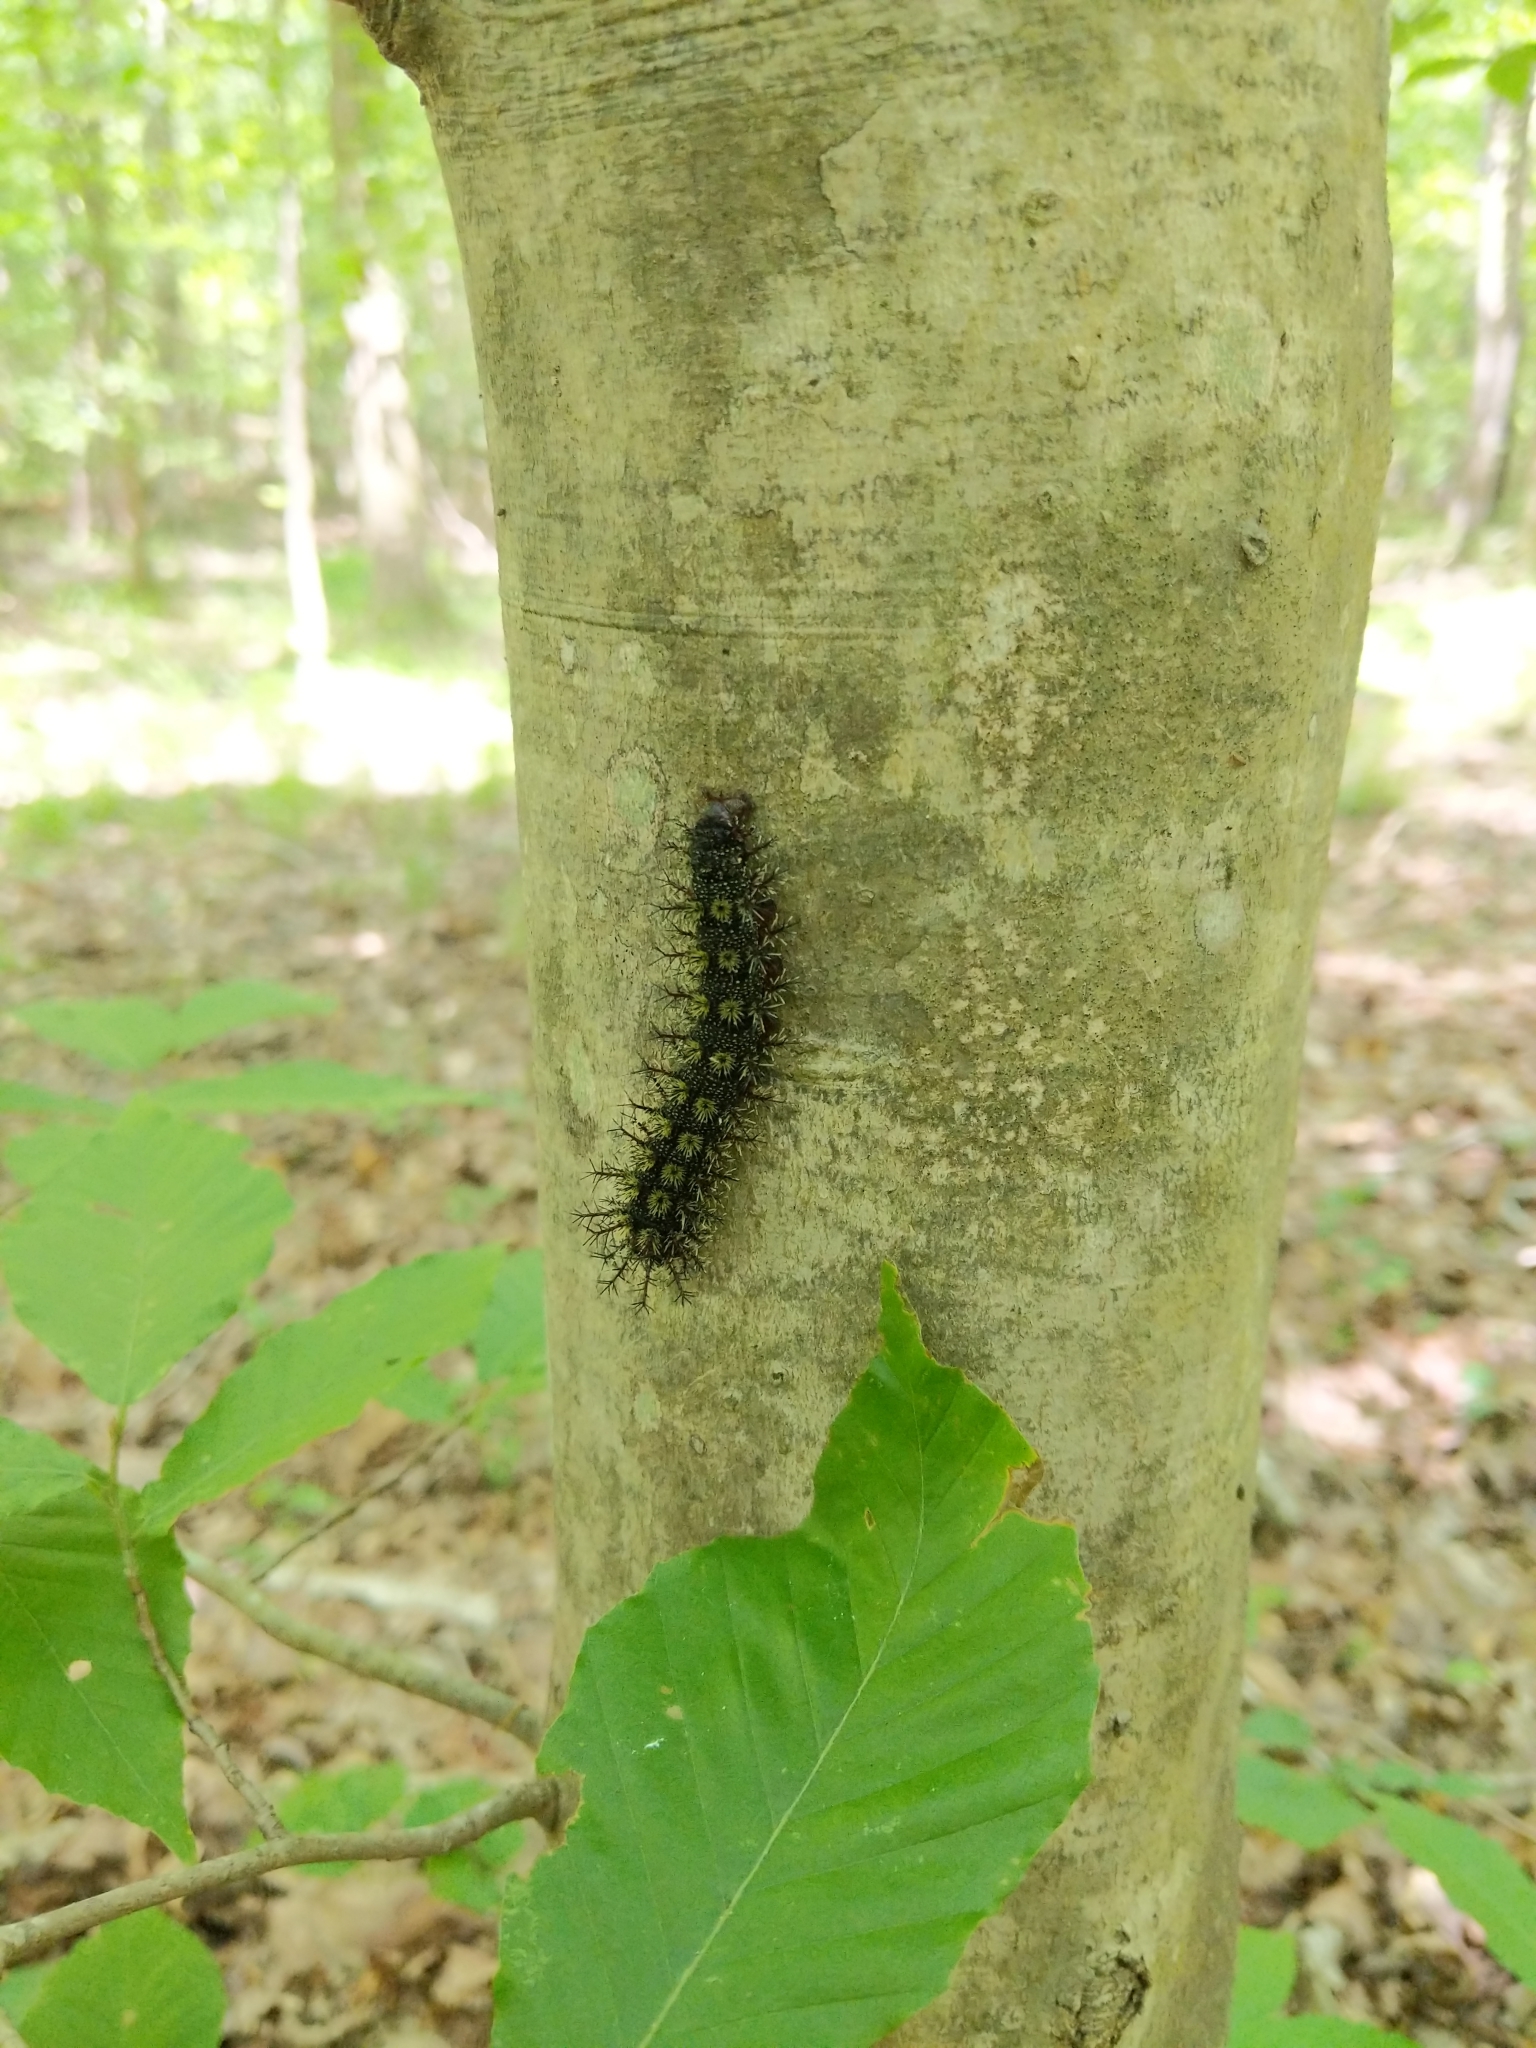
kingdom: Animalia
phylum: Arthropoda
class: Insecta
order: Lepidoptera
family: Saturniidae
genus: Hemileuca
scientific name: Hemileuca maia
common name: Eastern buckmoth
